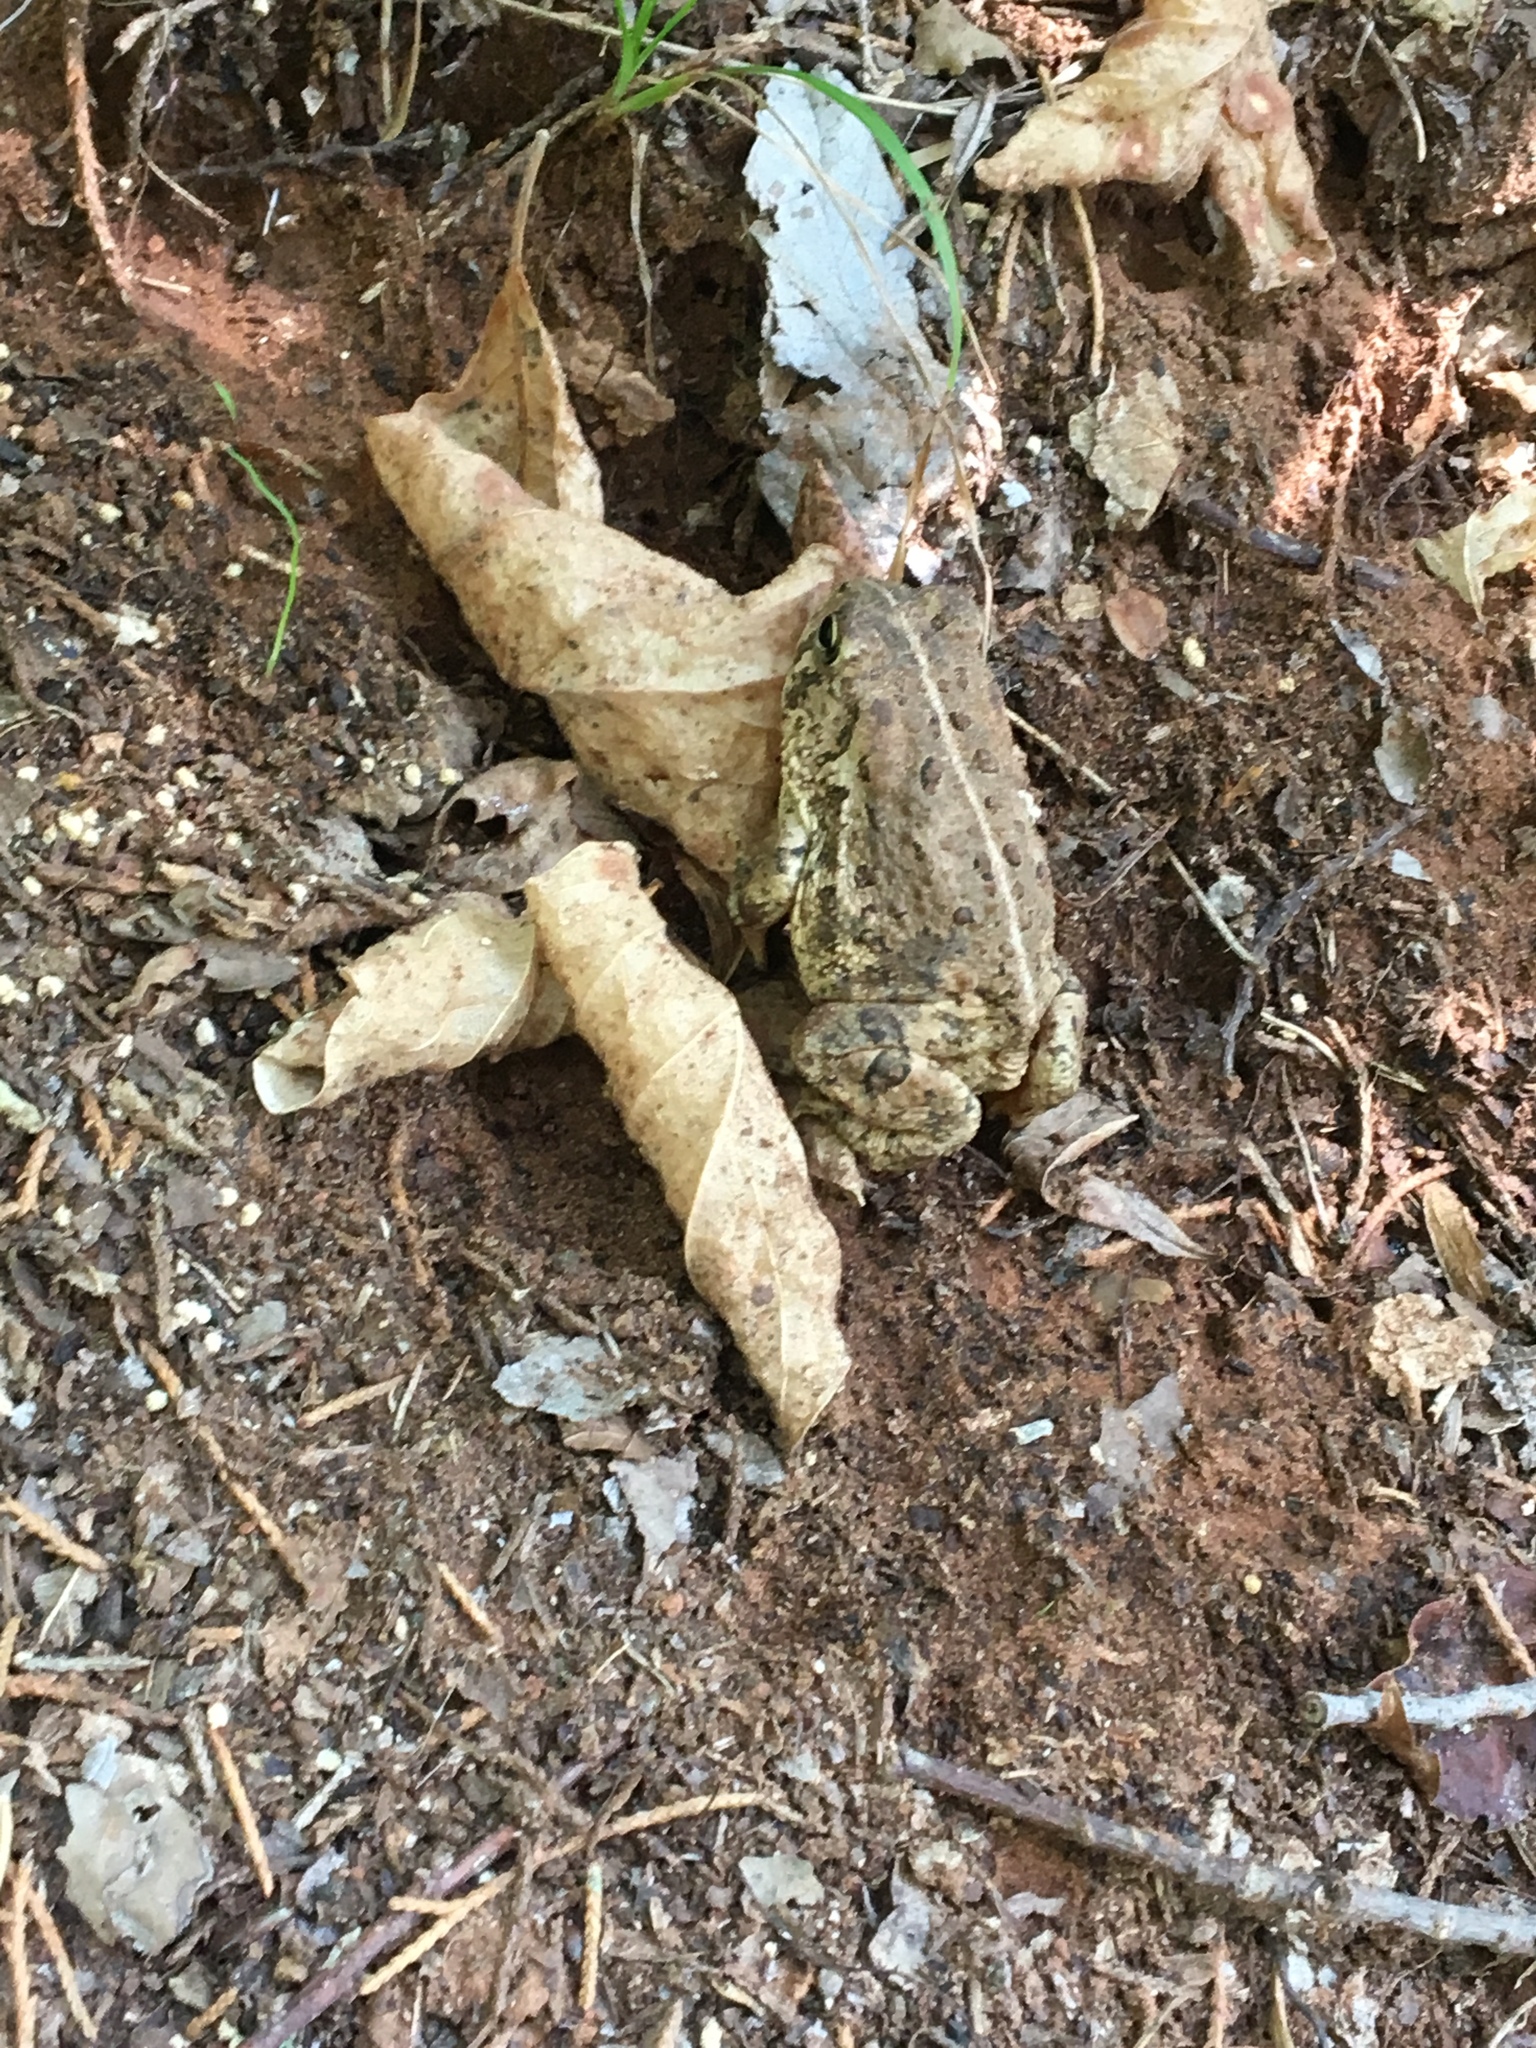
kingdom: Animalia
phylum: Chordata
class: Amphibia
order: Anura
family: Bufonidae
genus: Anaxyrus
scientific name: Anaxyrus woodhousii
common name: Woodhouse's toad
